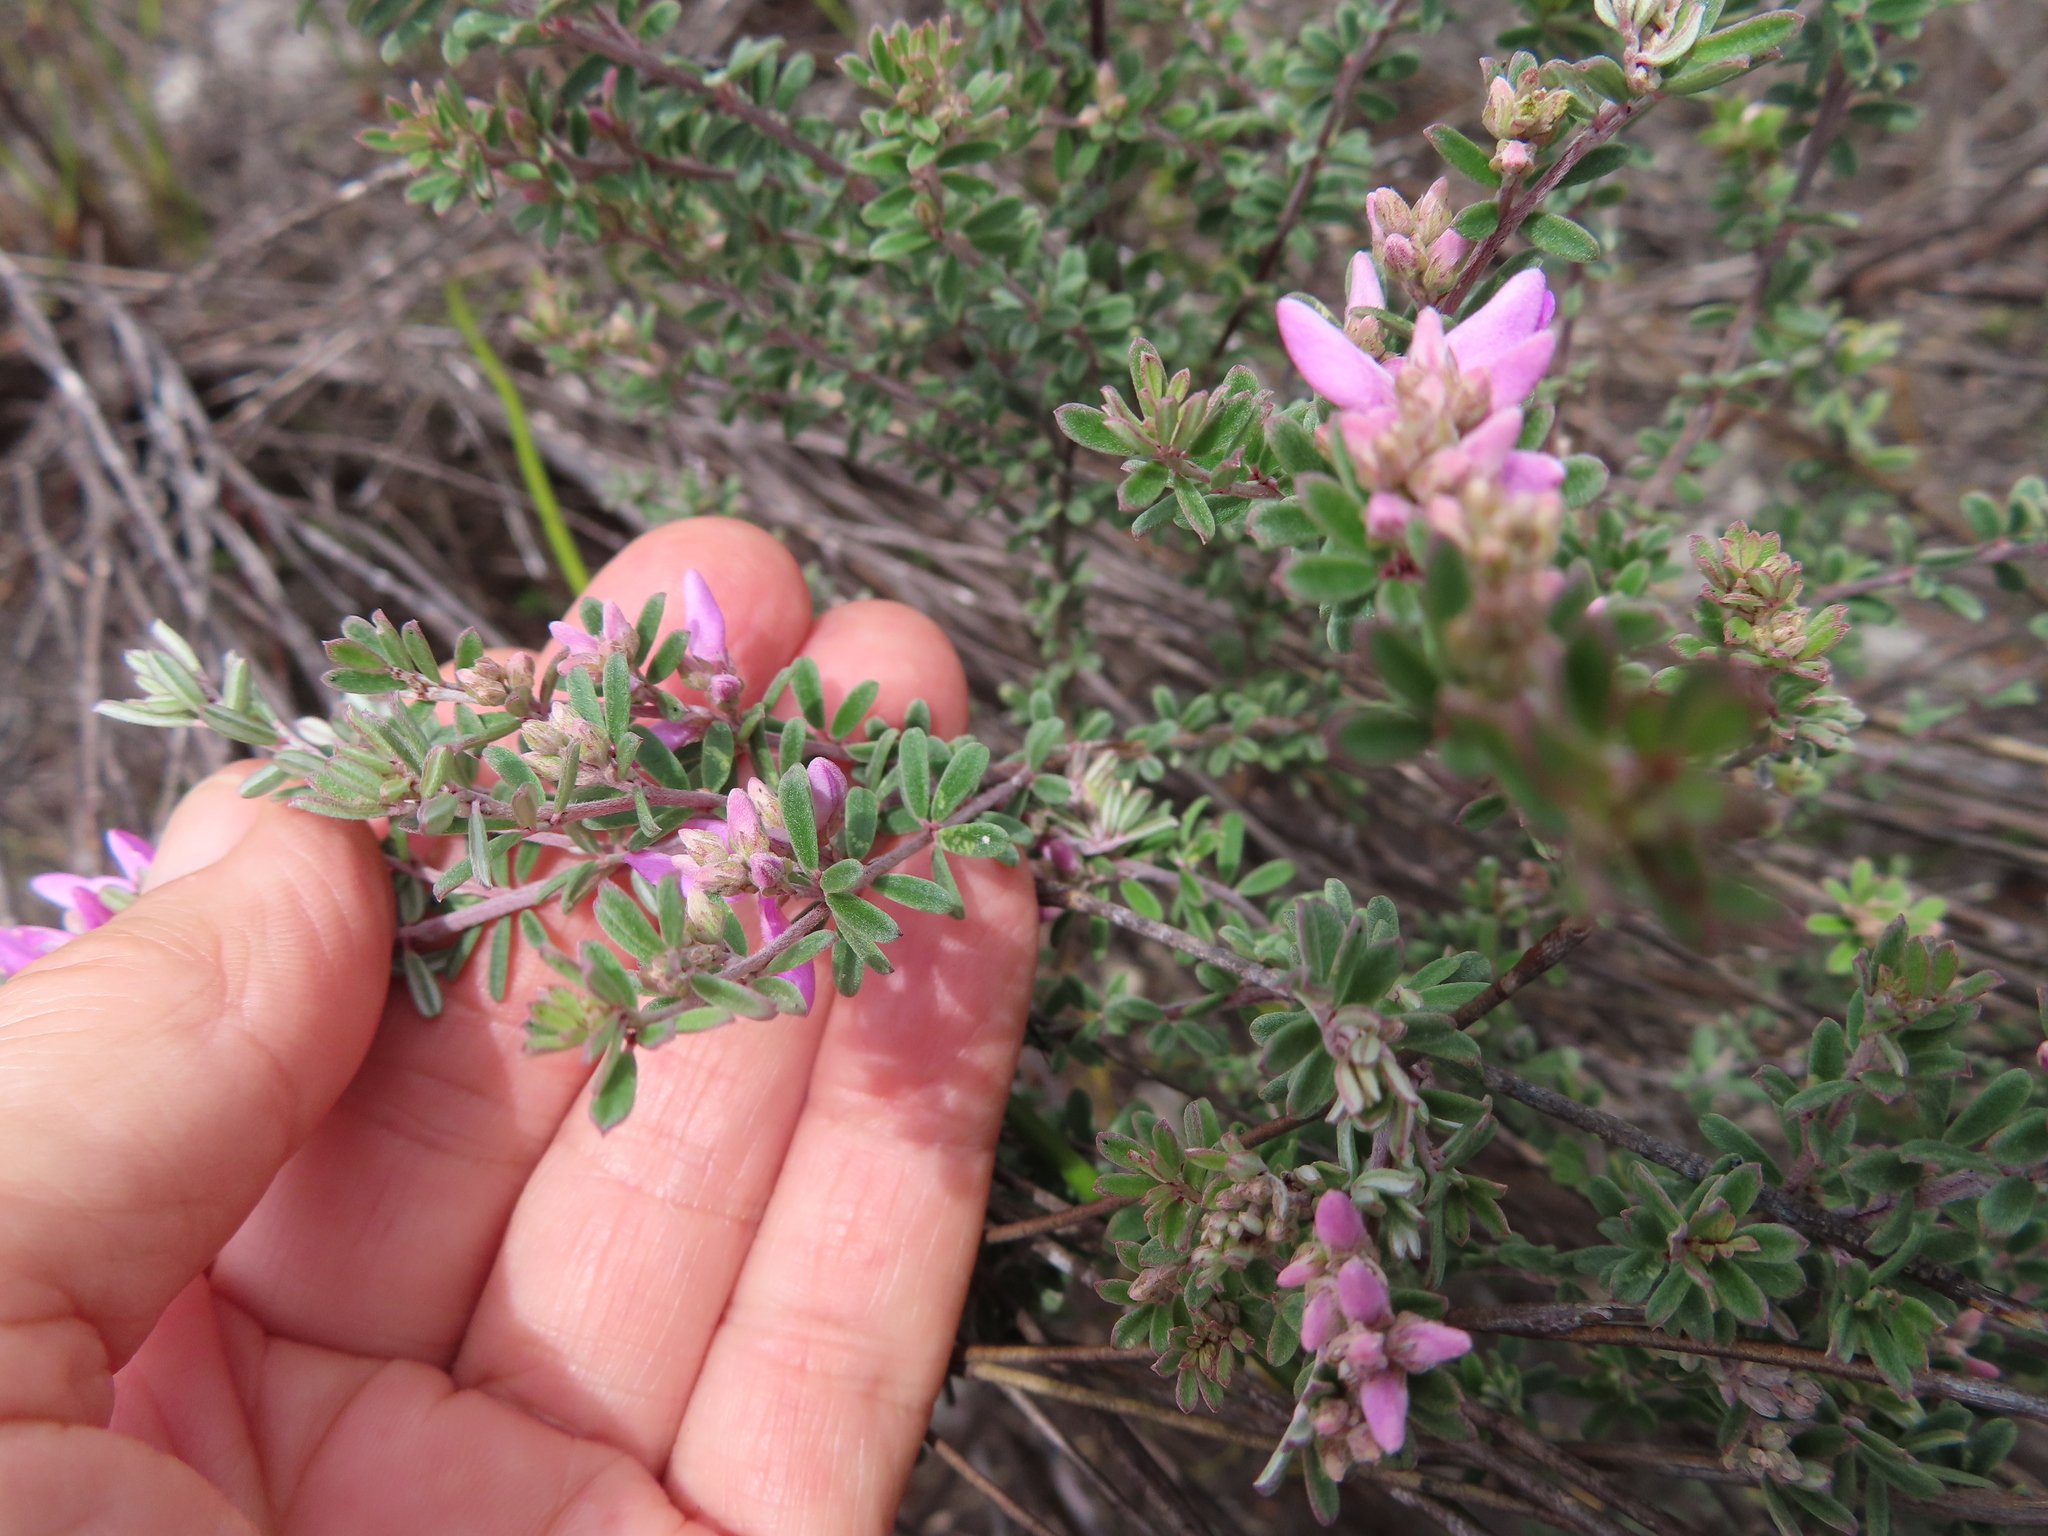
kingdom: Plantae
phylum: Tracheophyta
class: Magnoliopsida
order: Fabales
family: Fabaceae
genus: Indigofera
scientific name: Indigofera
